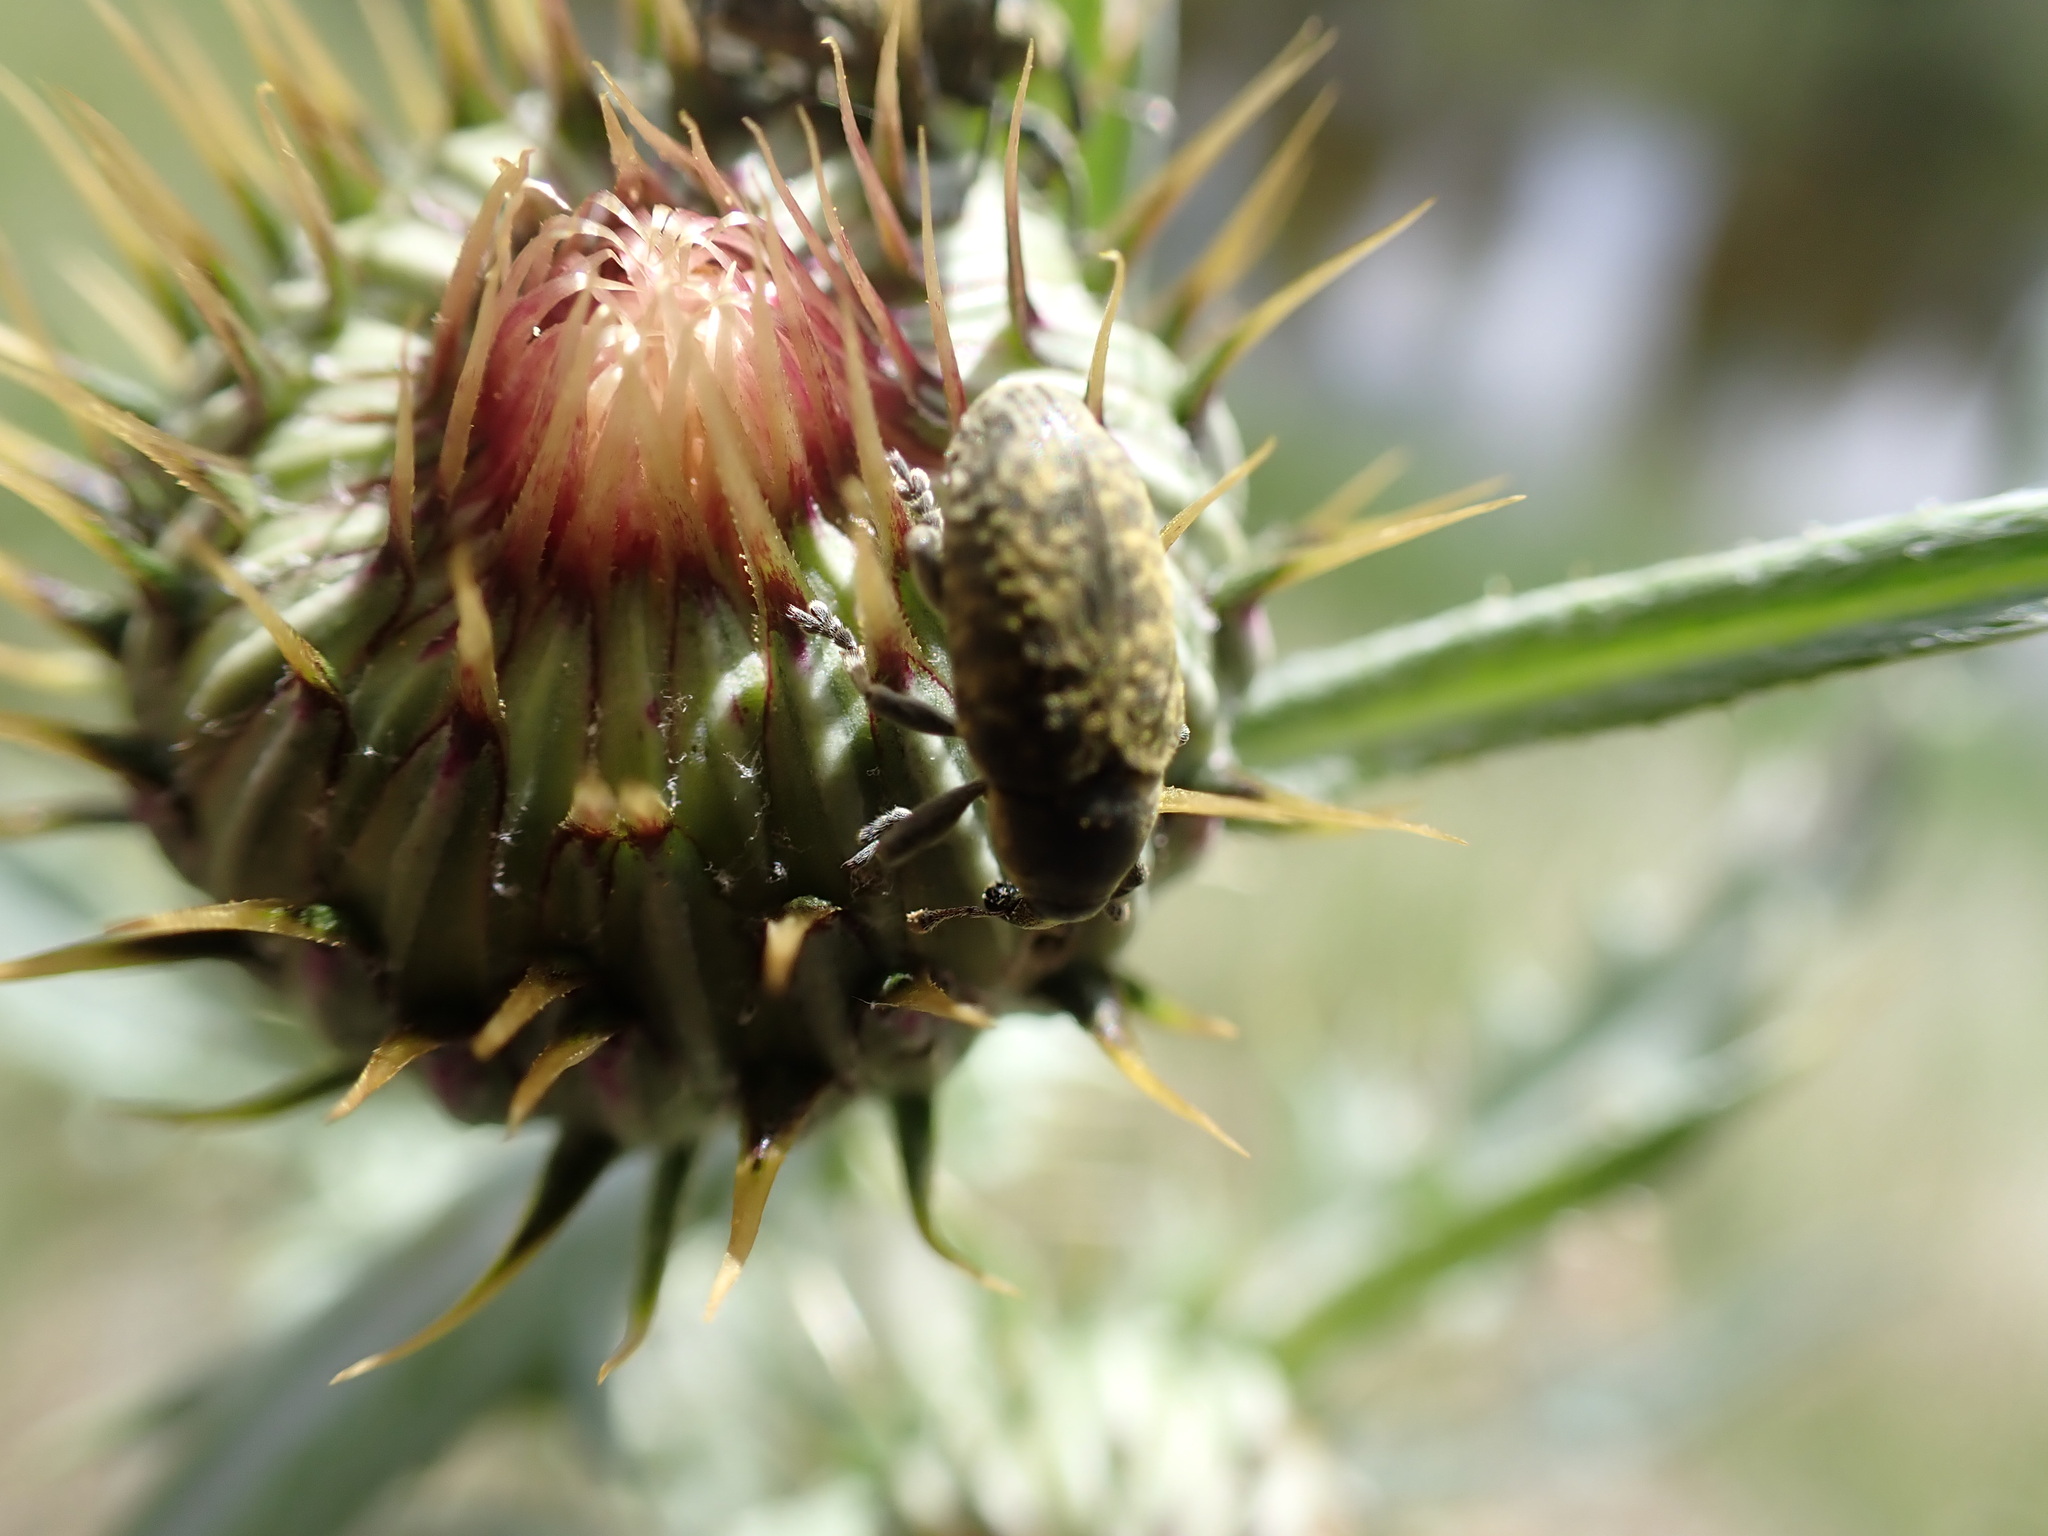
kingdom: Animalia
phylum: Arthropoda
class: Insecta
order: Coleoptera
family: Curculionidae
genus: Larinus
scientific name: Larinus carlinae
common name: Weevil
